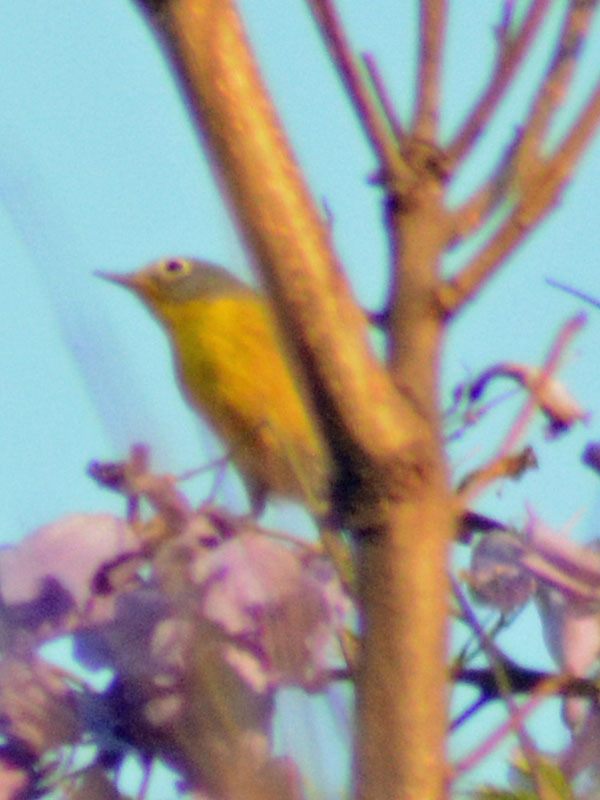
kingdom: Animalia
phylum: Chordata
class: Aves
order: Passeriformes
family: Parulidae
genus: Leiothlypis
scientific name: Leiothlypis ruficapilla
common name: Nashville warbler
